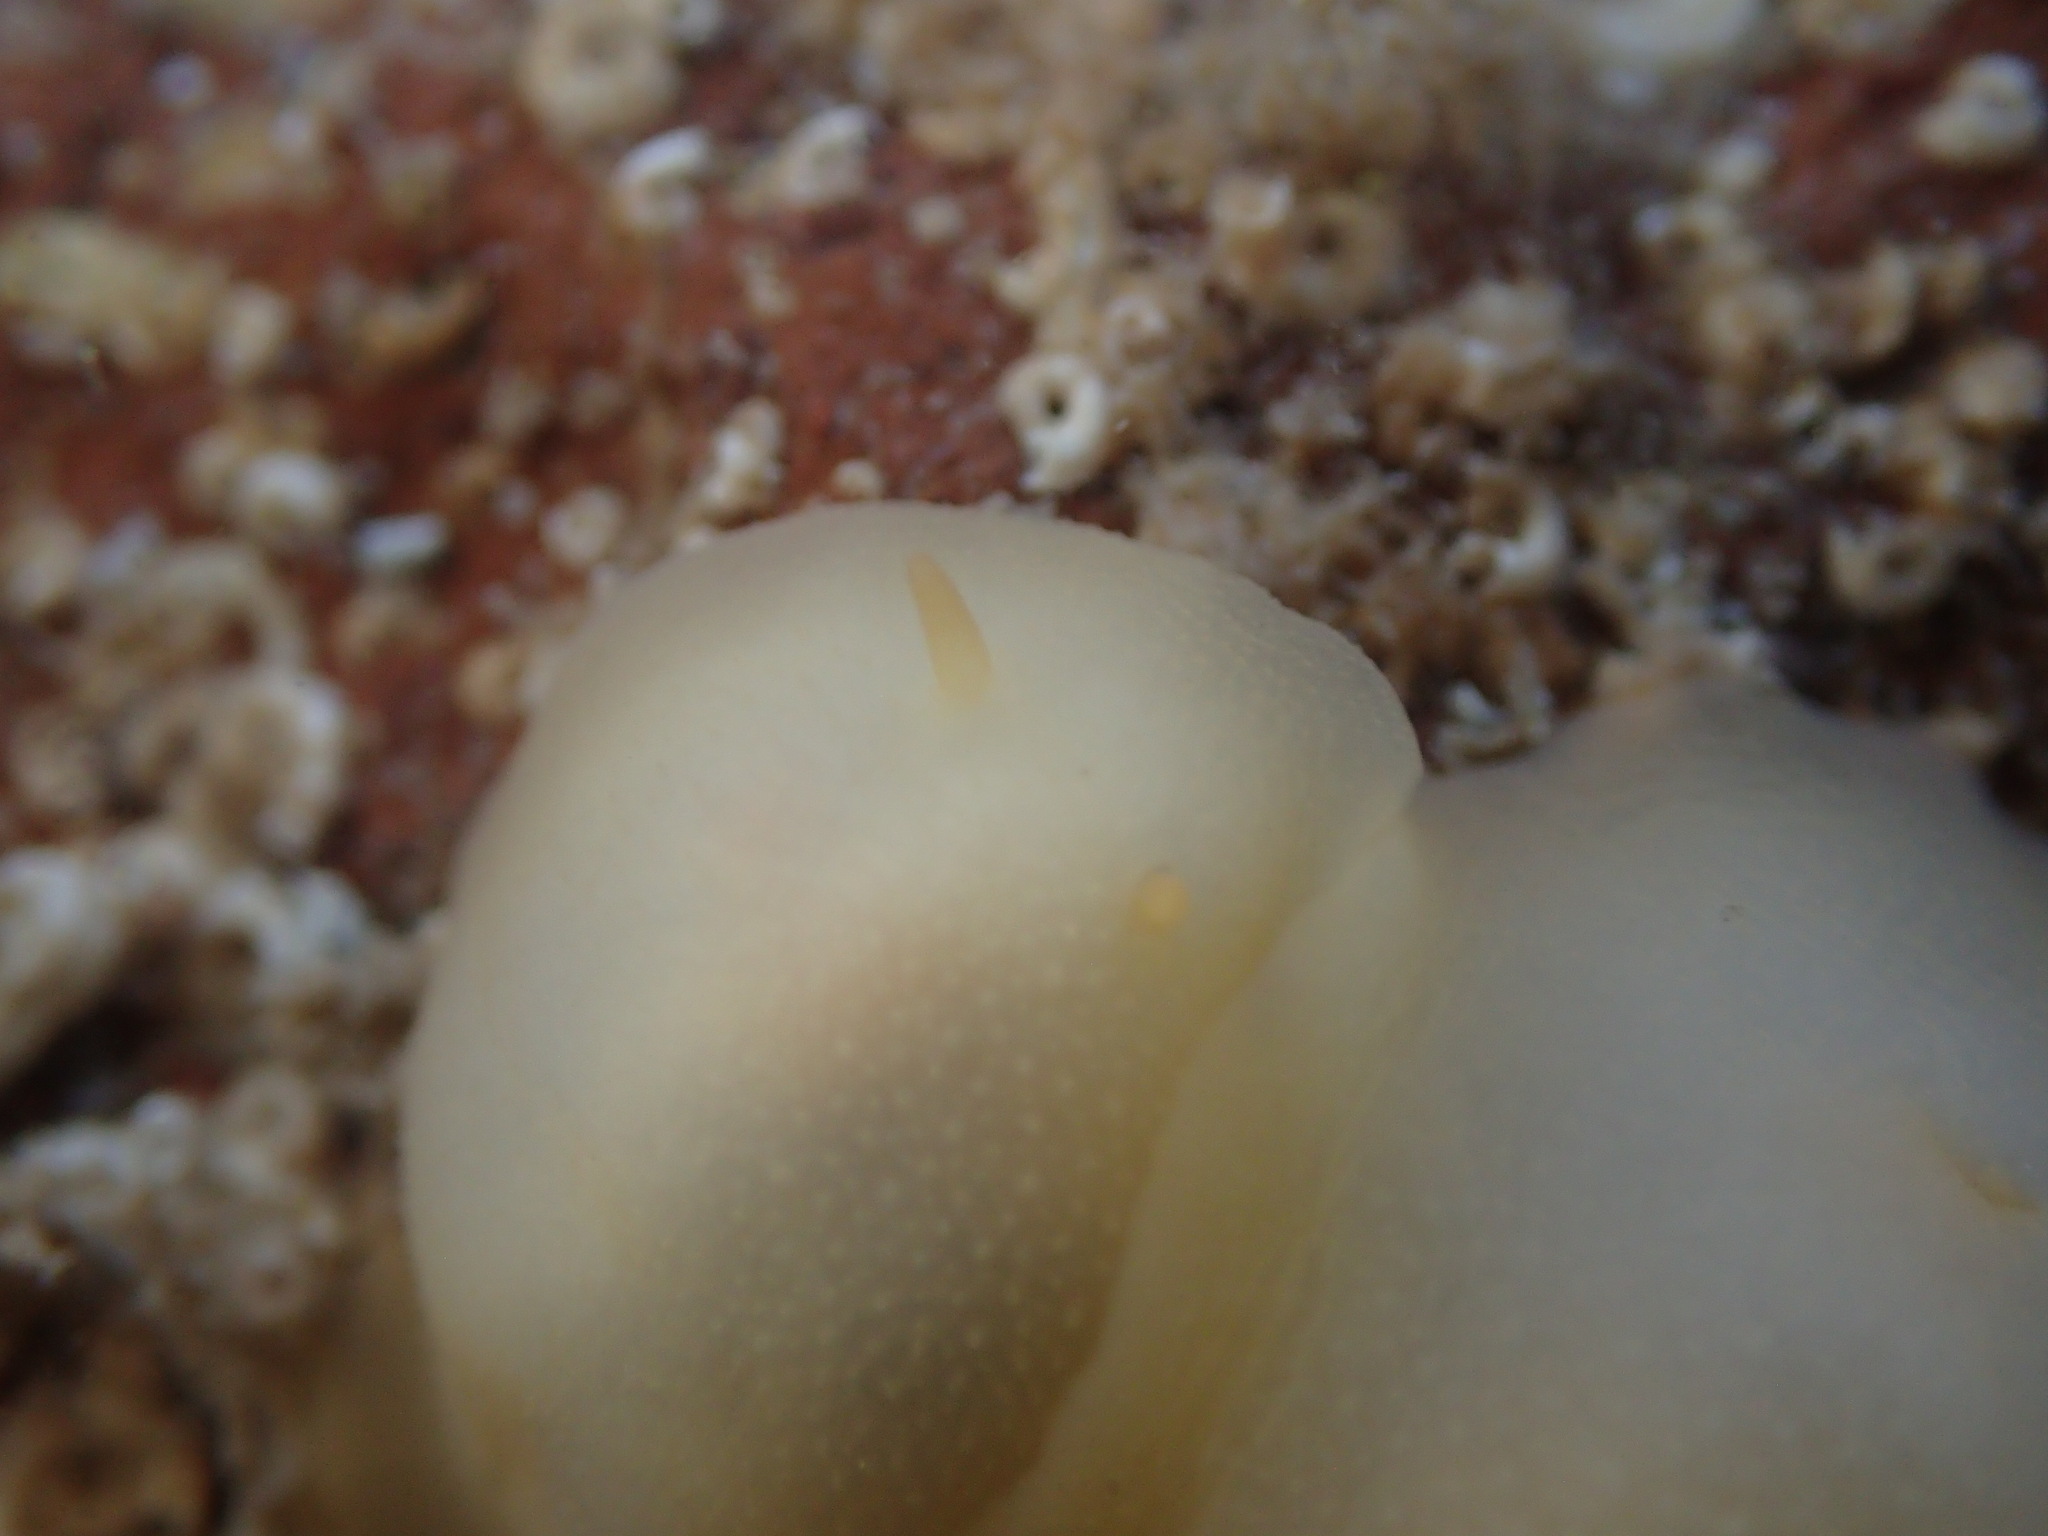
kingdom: Animalia
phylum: Mollusca
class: Gastropoda
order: Nudibranchia
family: Dorididae
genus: Conualevia
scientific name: Conualevia marcusi
